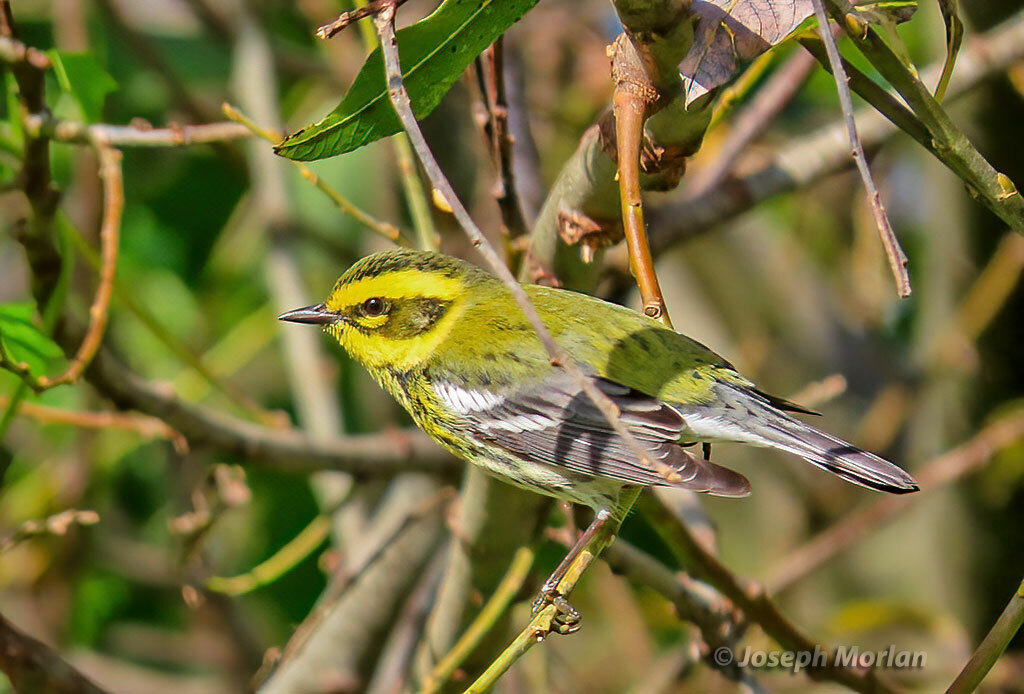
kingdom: Animalia
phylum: Chordata
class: Aves
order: Passeriformes
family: Parulidae
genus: Setophaga
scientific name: Setophaga townsendi
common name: Townsend's warbler
